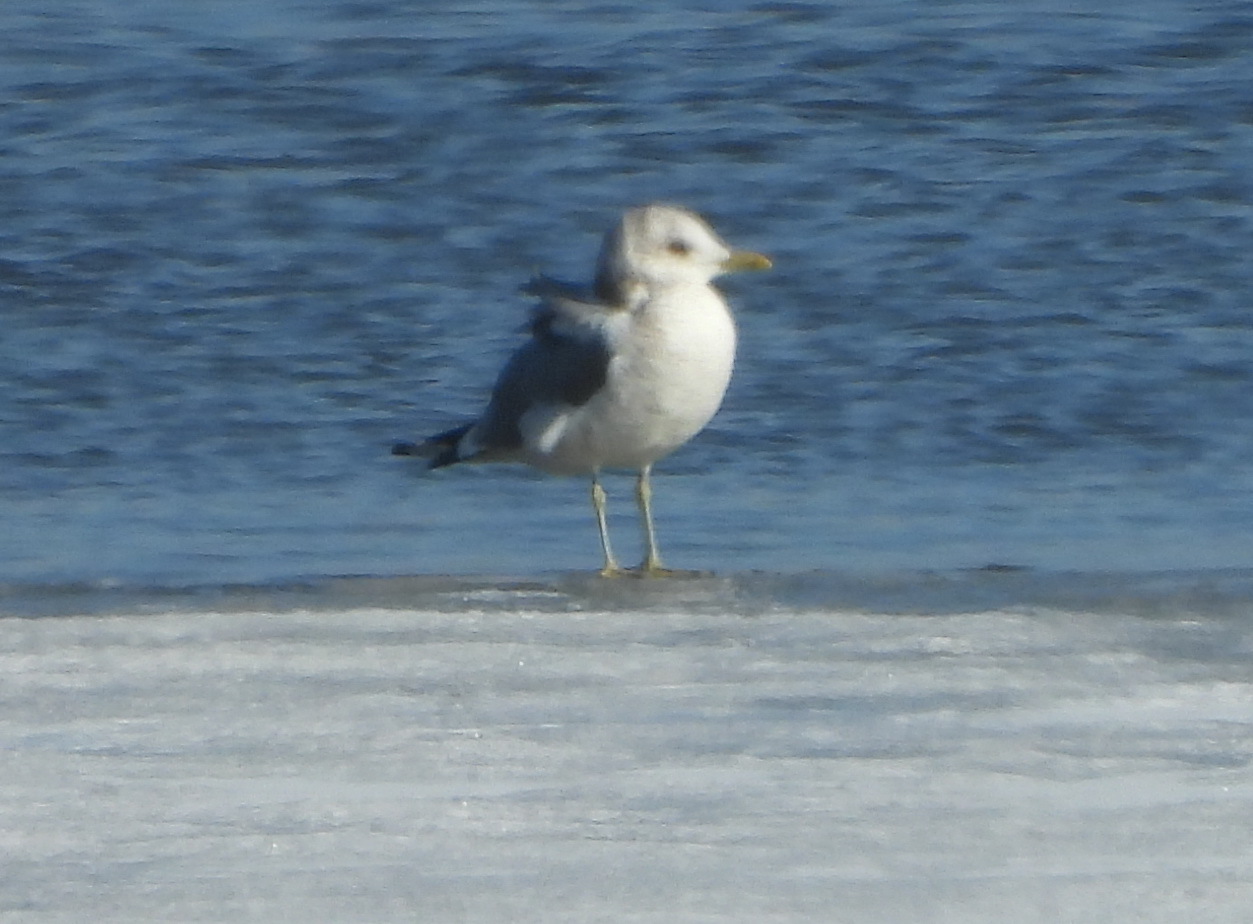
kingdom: Animalia
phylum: Chordata
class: Aves
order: Charadriiformes
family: Laridae
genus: Larus
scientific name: Larus canus
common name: Mew gull
